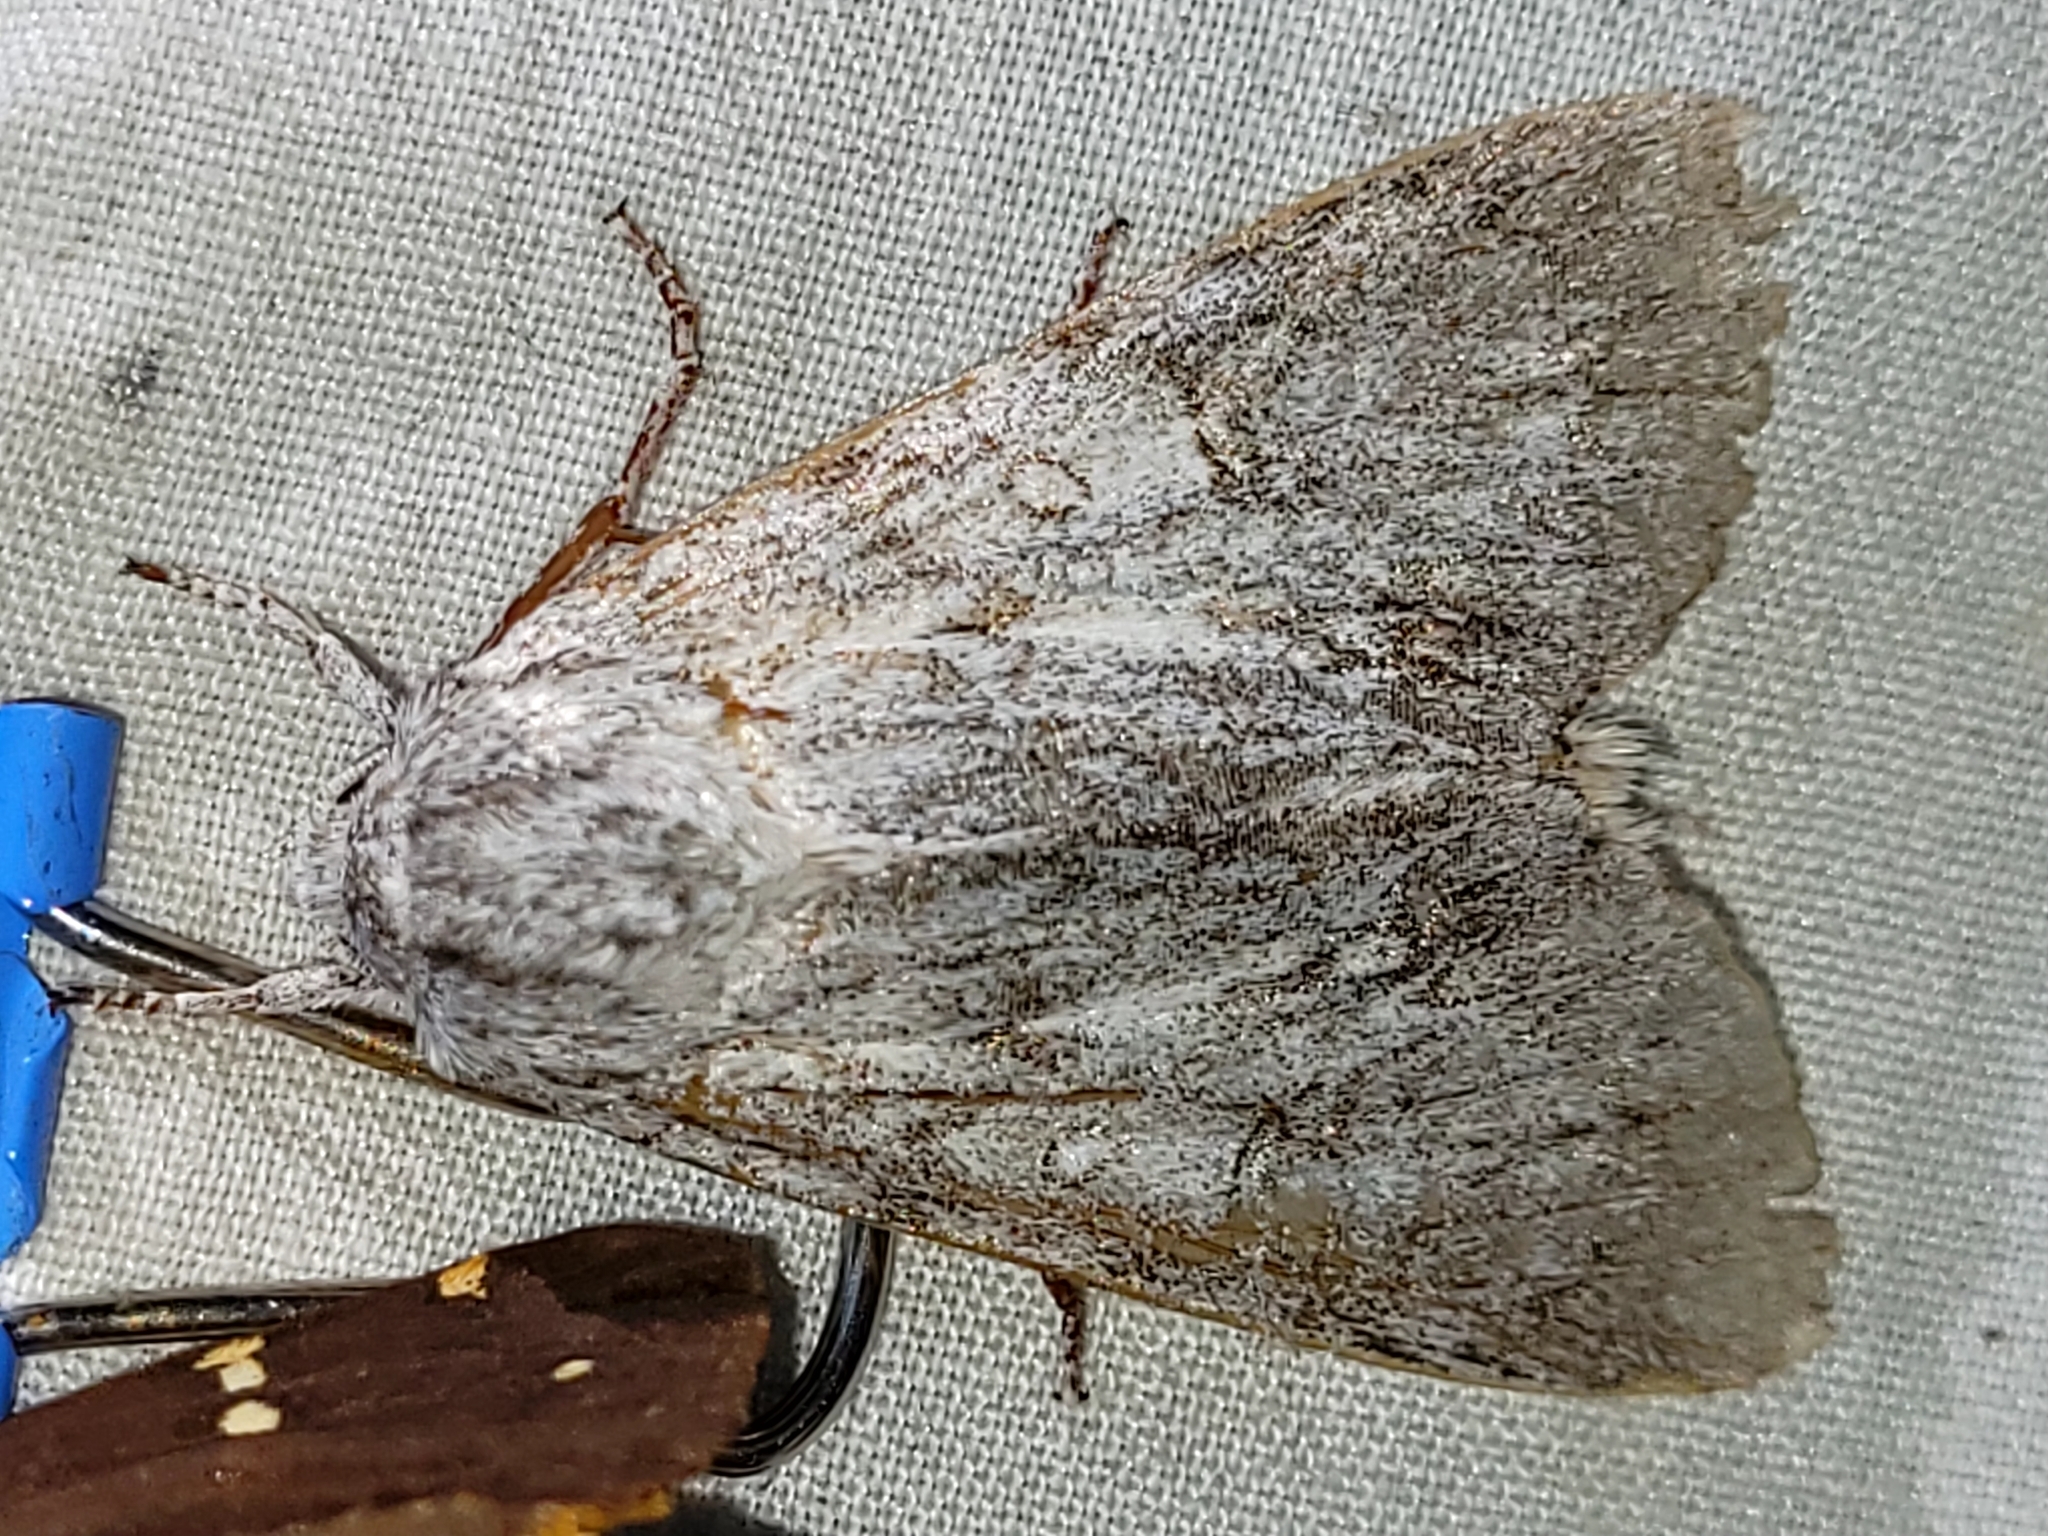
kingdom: Animalia
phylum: Arthropoda
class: Insecta
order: Lepidoptera
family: Noctuidae
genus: Acronicta
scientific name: Acronicta americana
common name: American dagger
